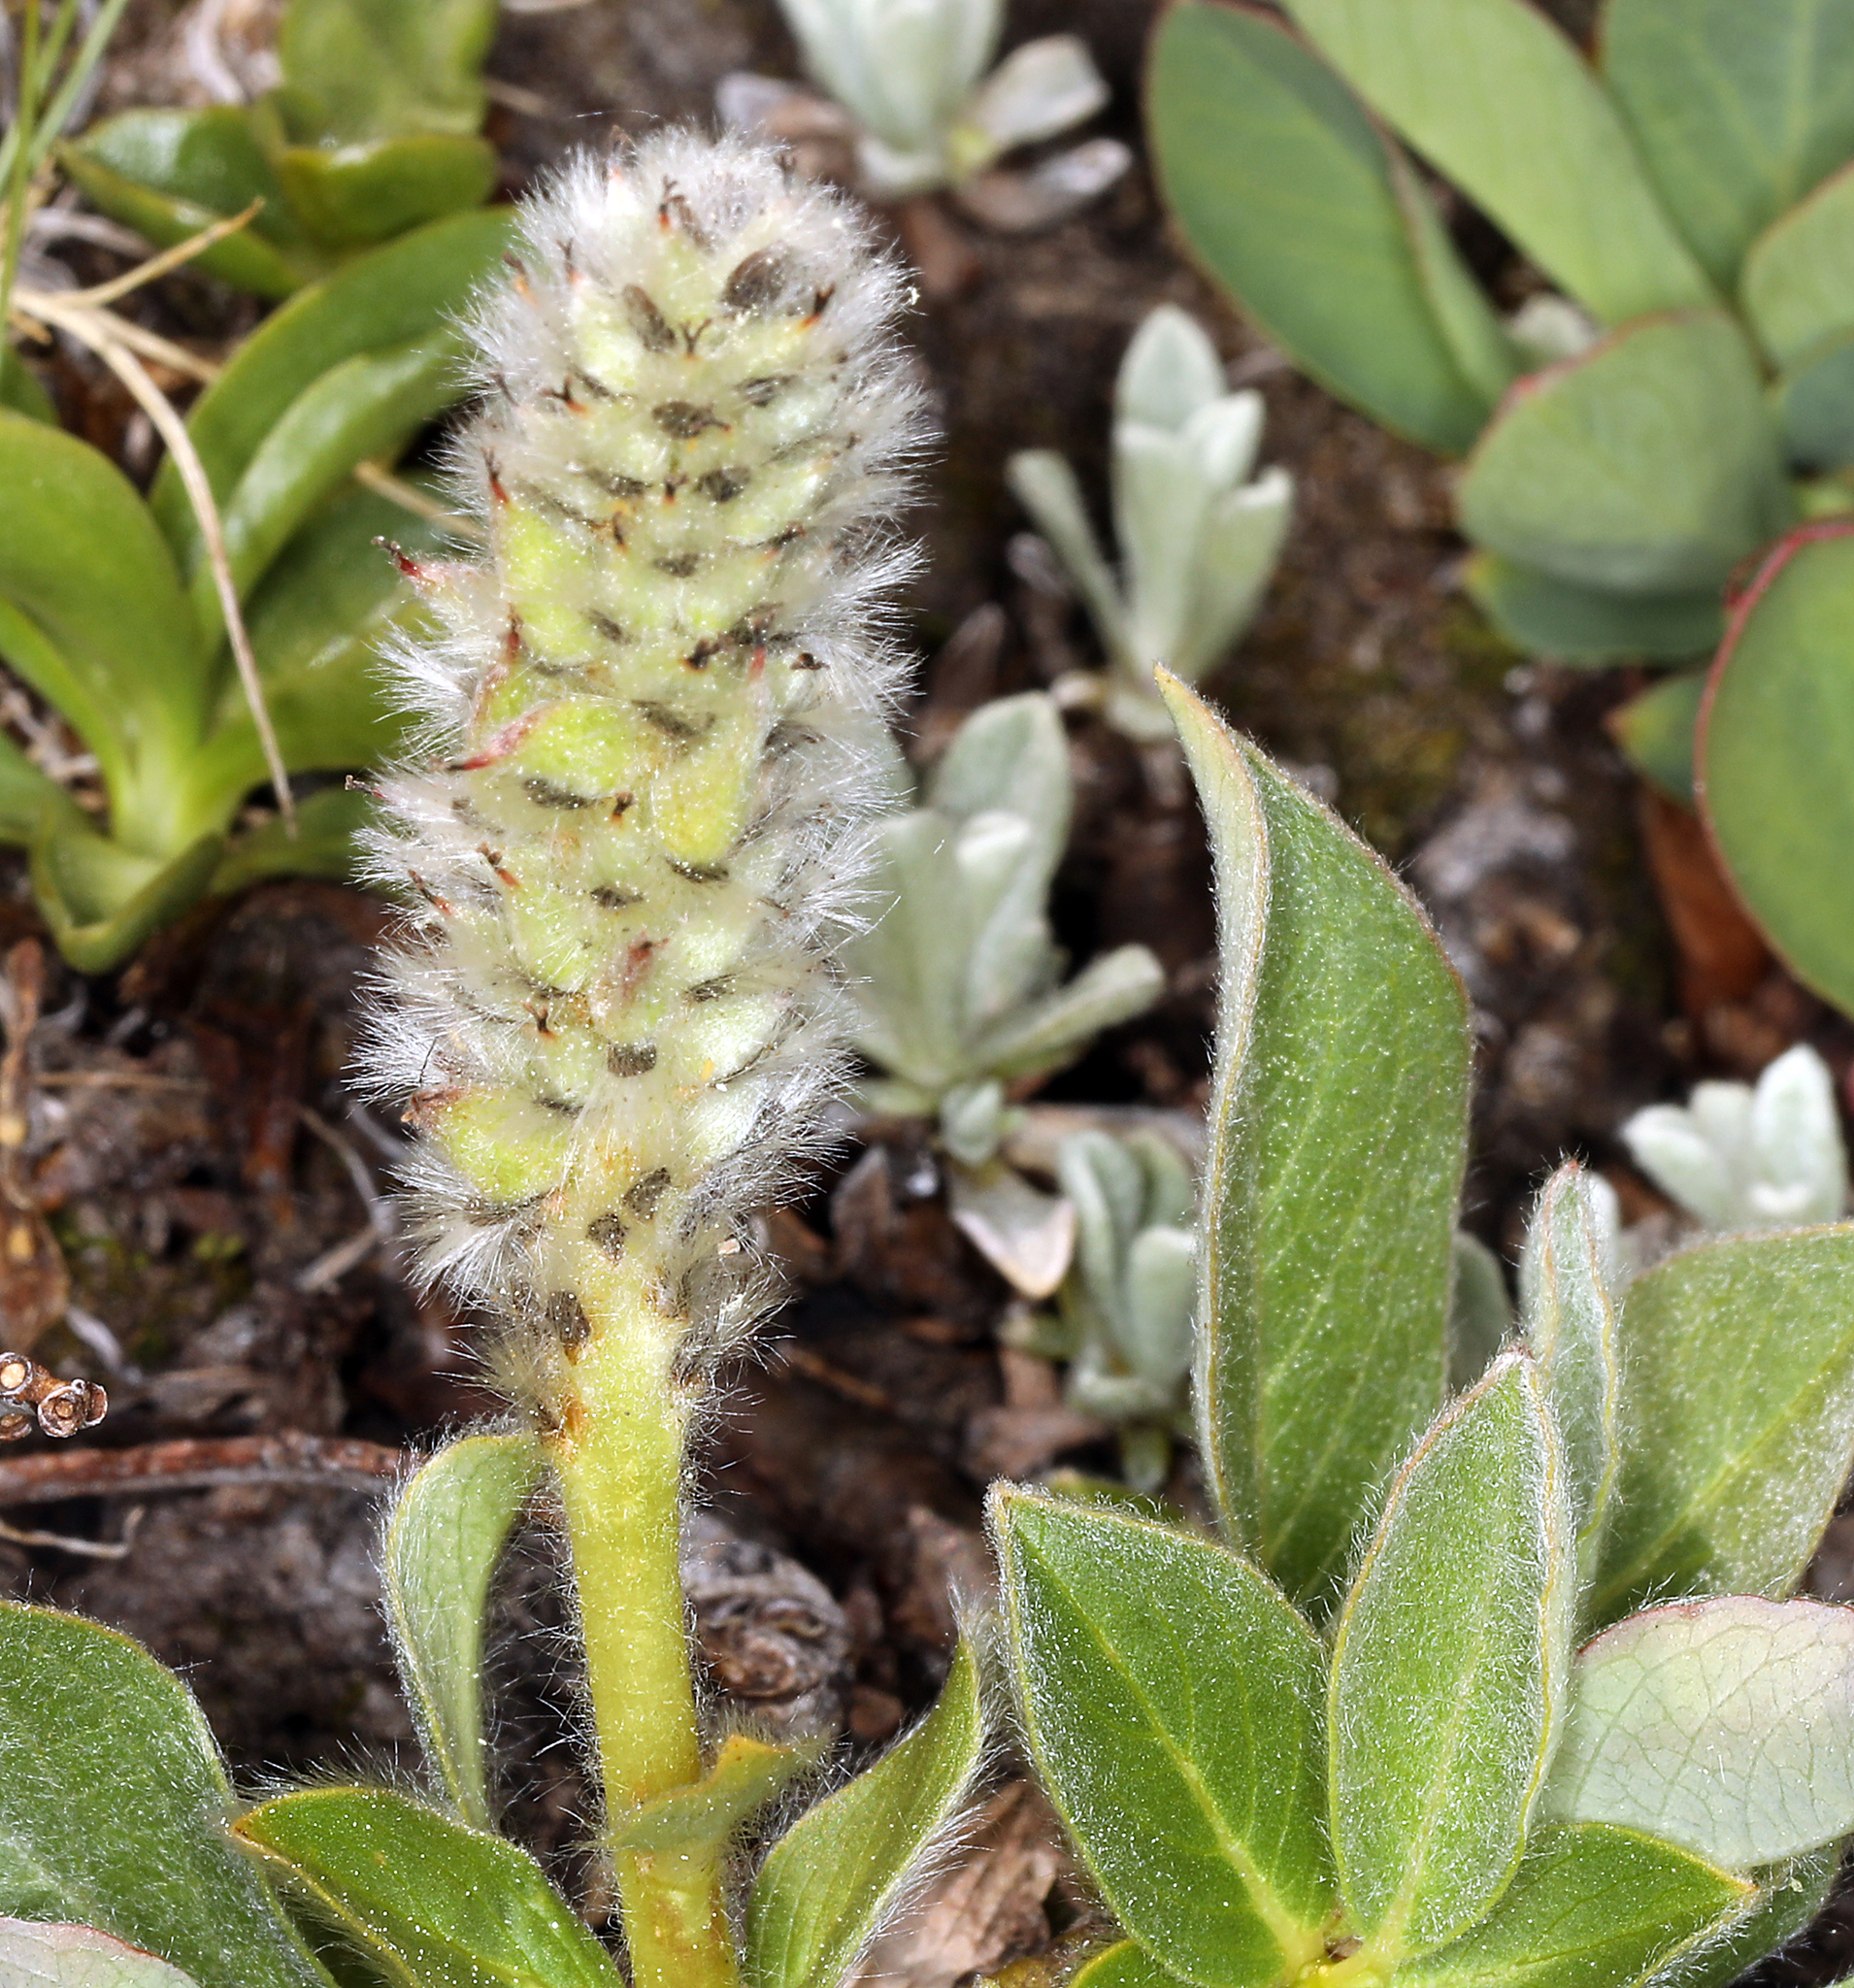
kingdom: Plantae
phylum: Tracheophyta
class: Magnoliopsida
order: Malpighiales
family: Salicaceae
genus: Salix
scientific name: Salix petrophila
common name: Rocky mountain willow
